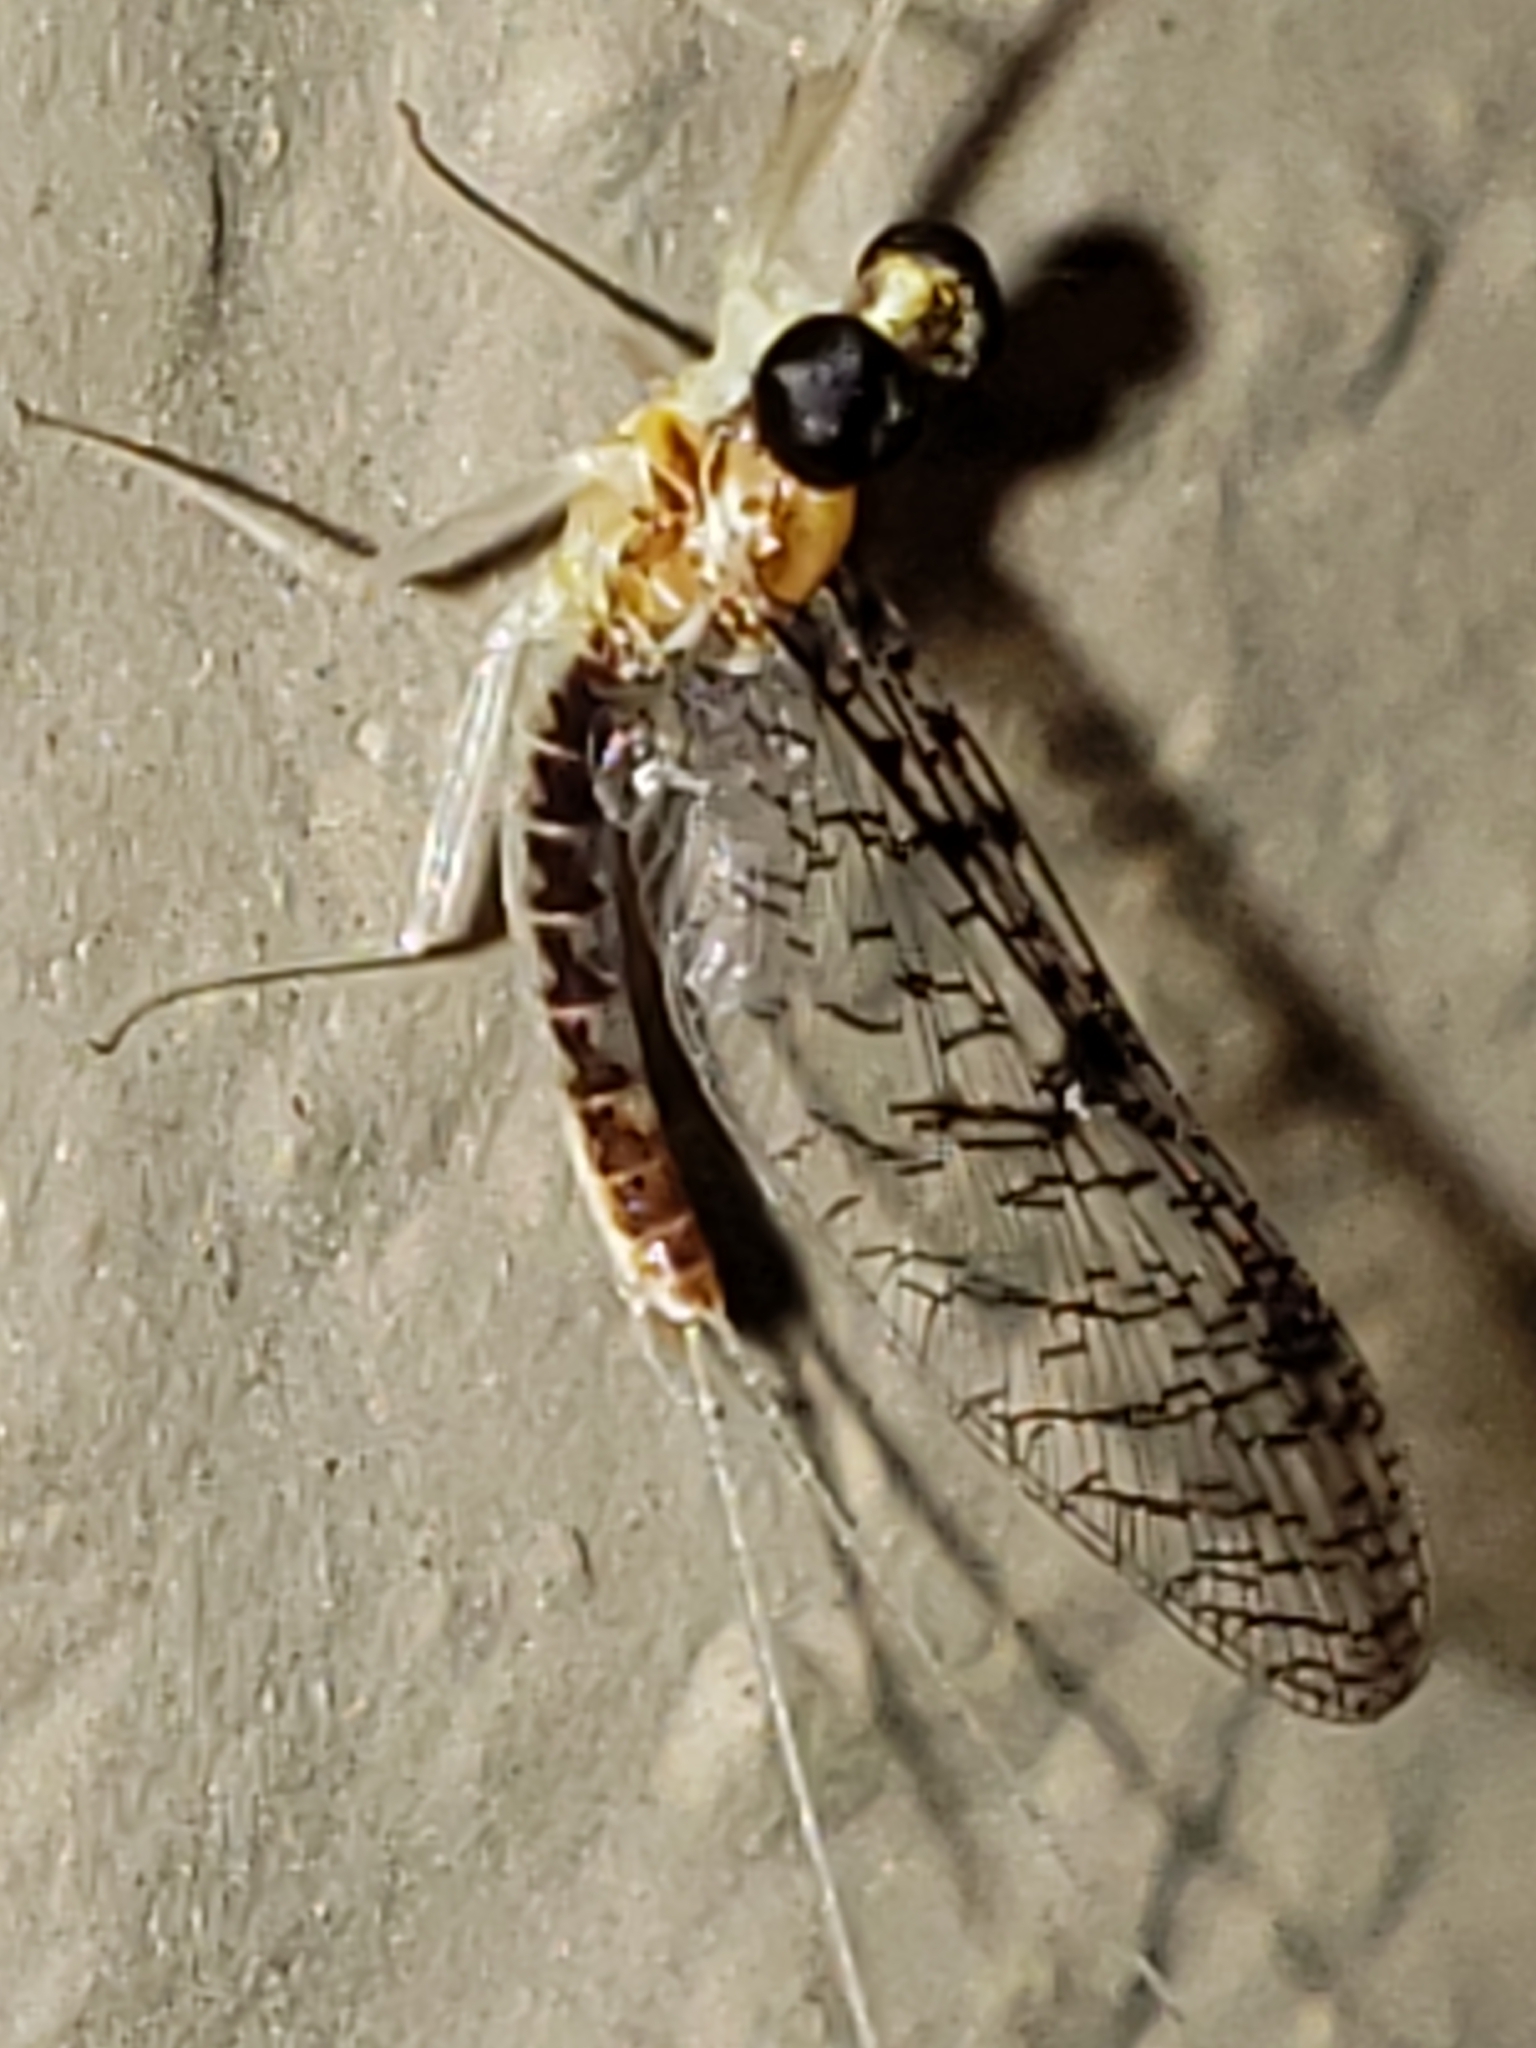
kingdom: Animalia
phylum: Arthropoda
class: Insecta
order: Ephemeroptera
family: Heptageniidae
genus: Leucrocuta
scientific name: Leucrocuta umbratica
